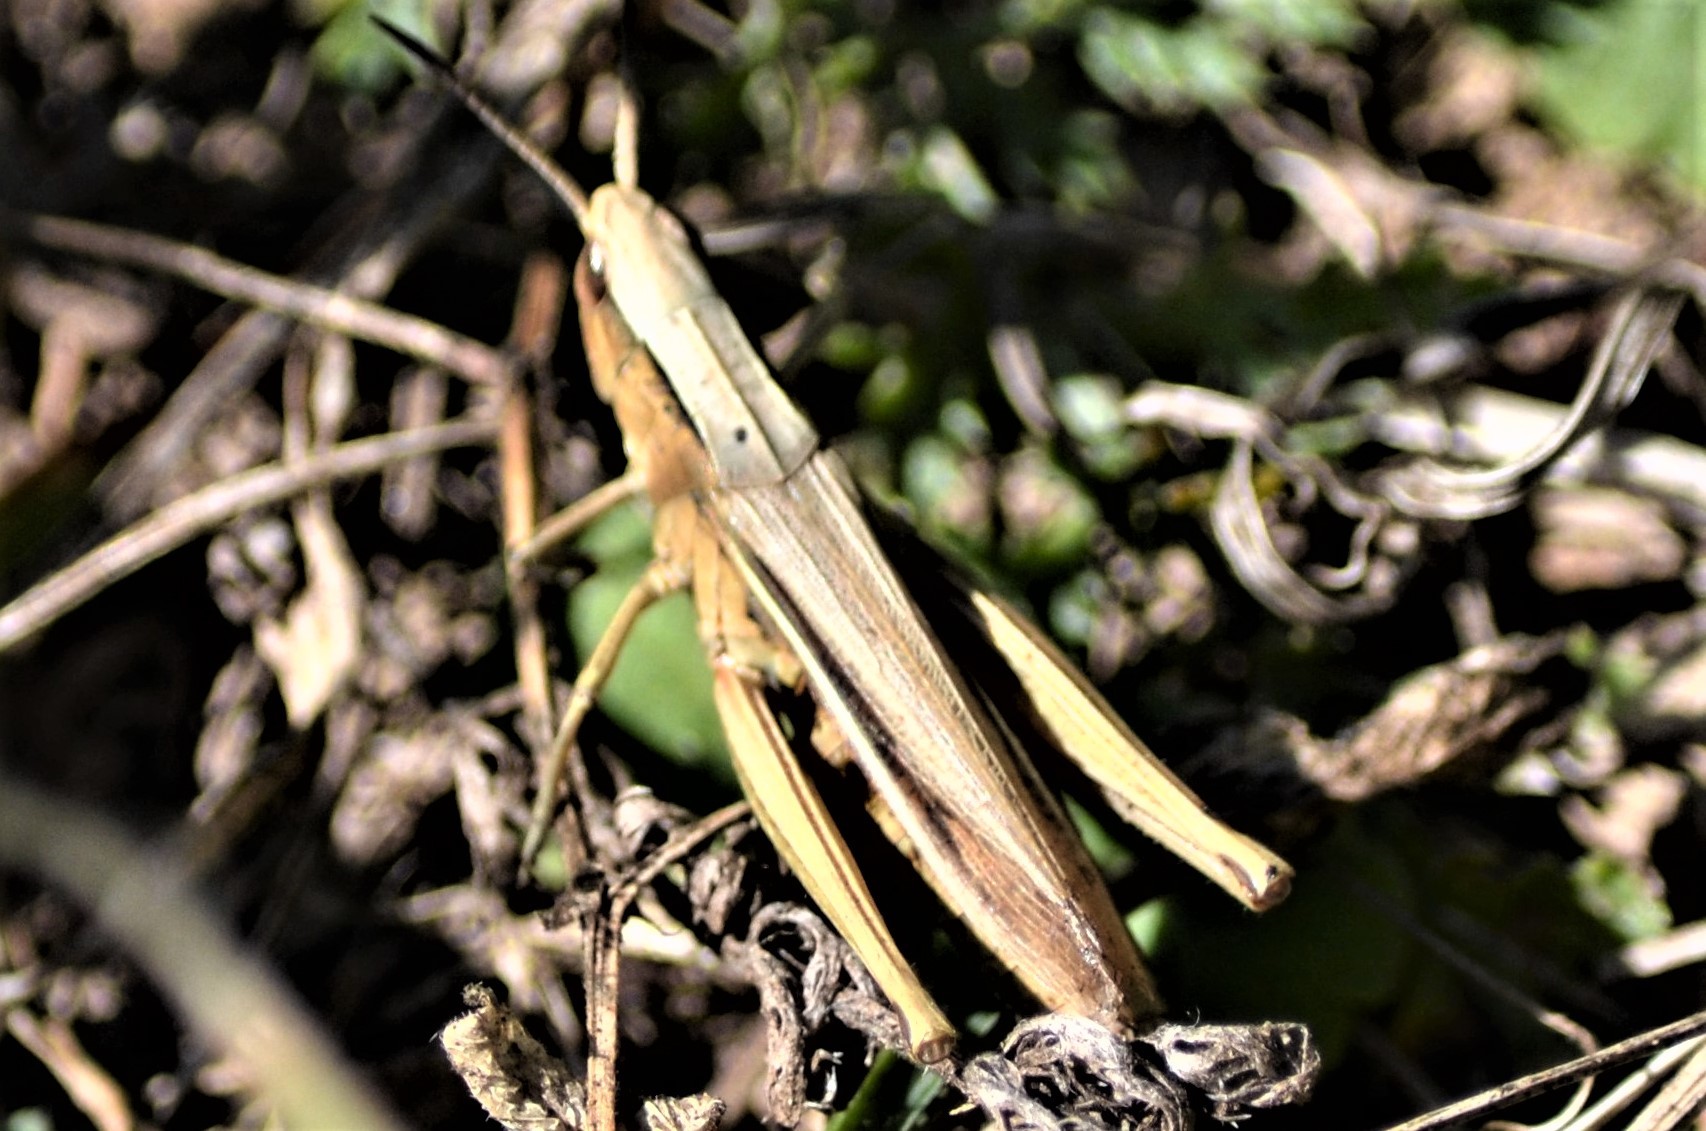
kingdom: Animalia
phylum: Arthropoda
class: Insecta
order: Orthoptera
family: Acrididae
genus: Chorthippus
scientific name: Chorthippus albomarginatus
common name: Lesser marsh grasshopper
